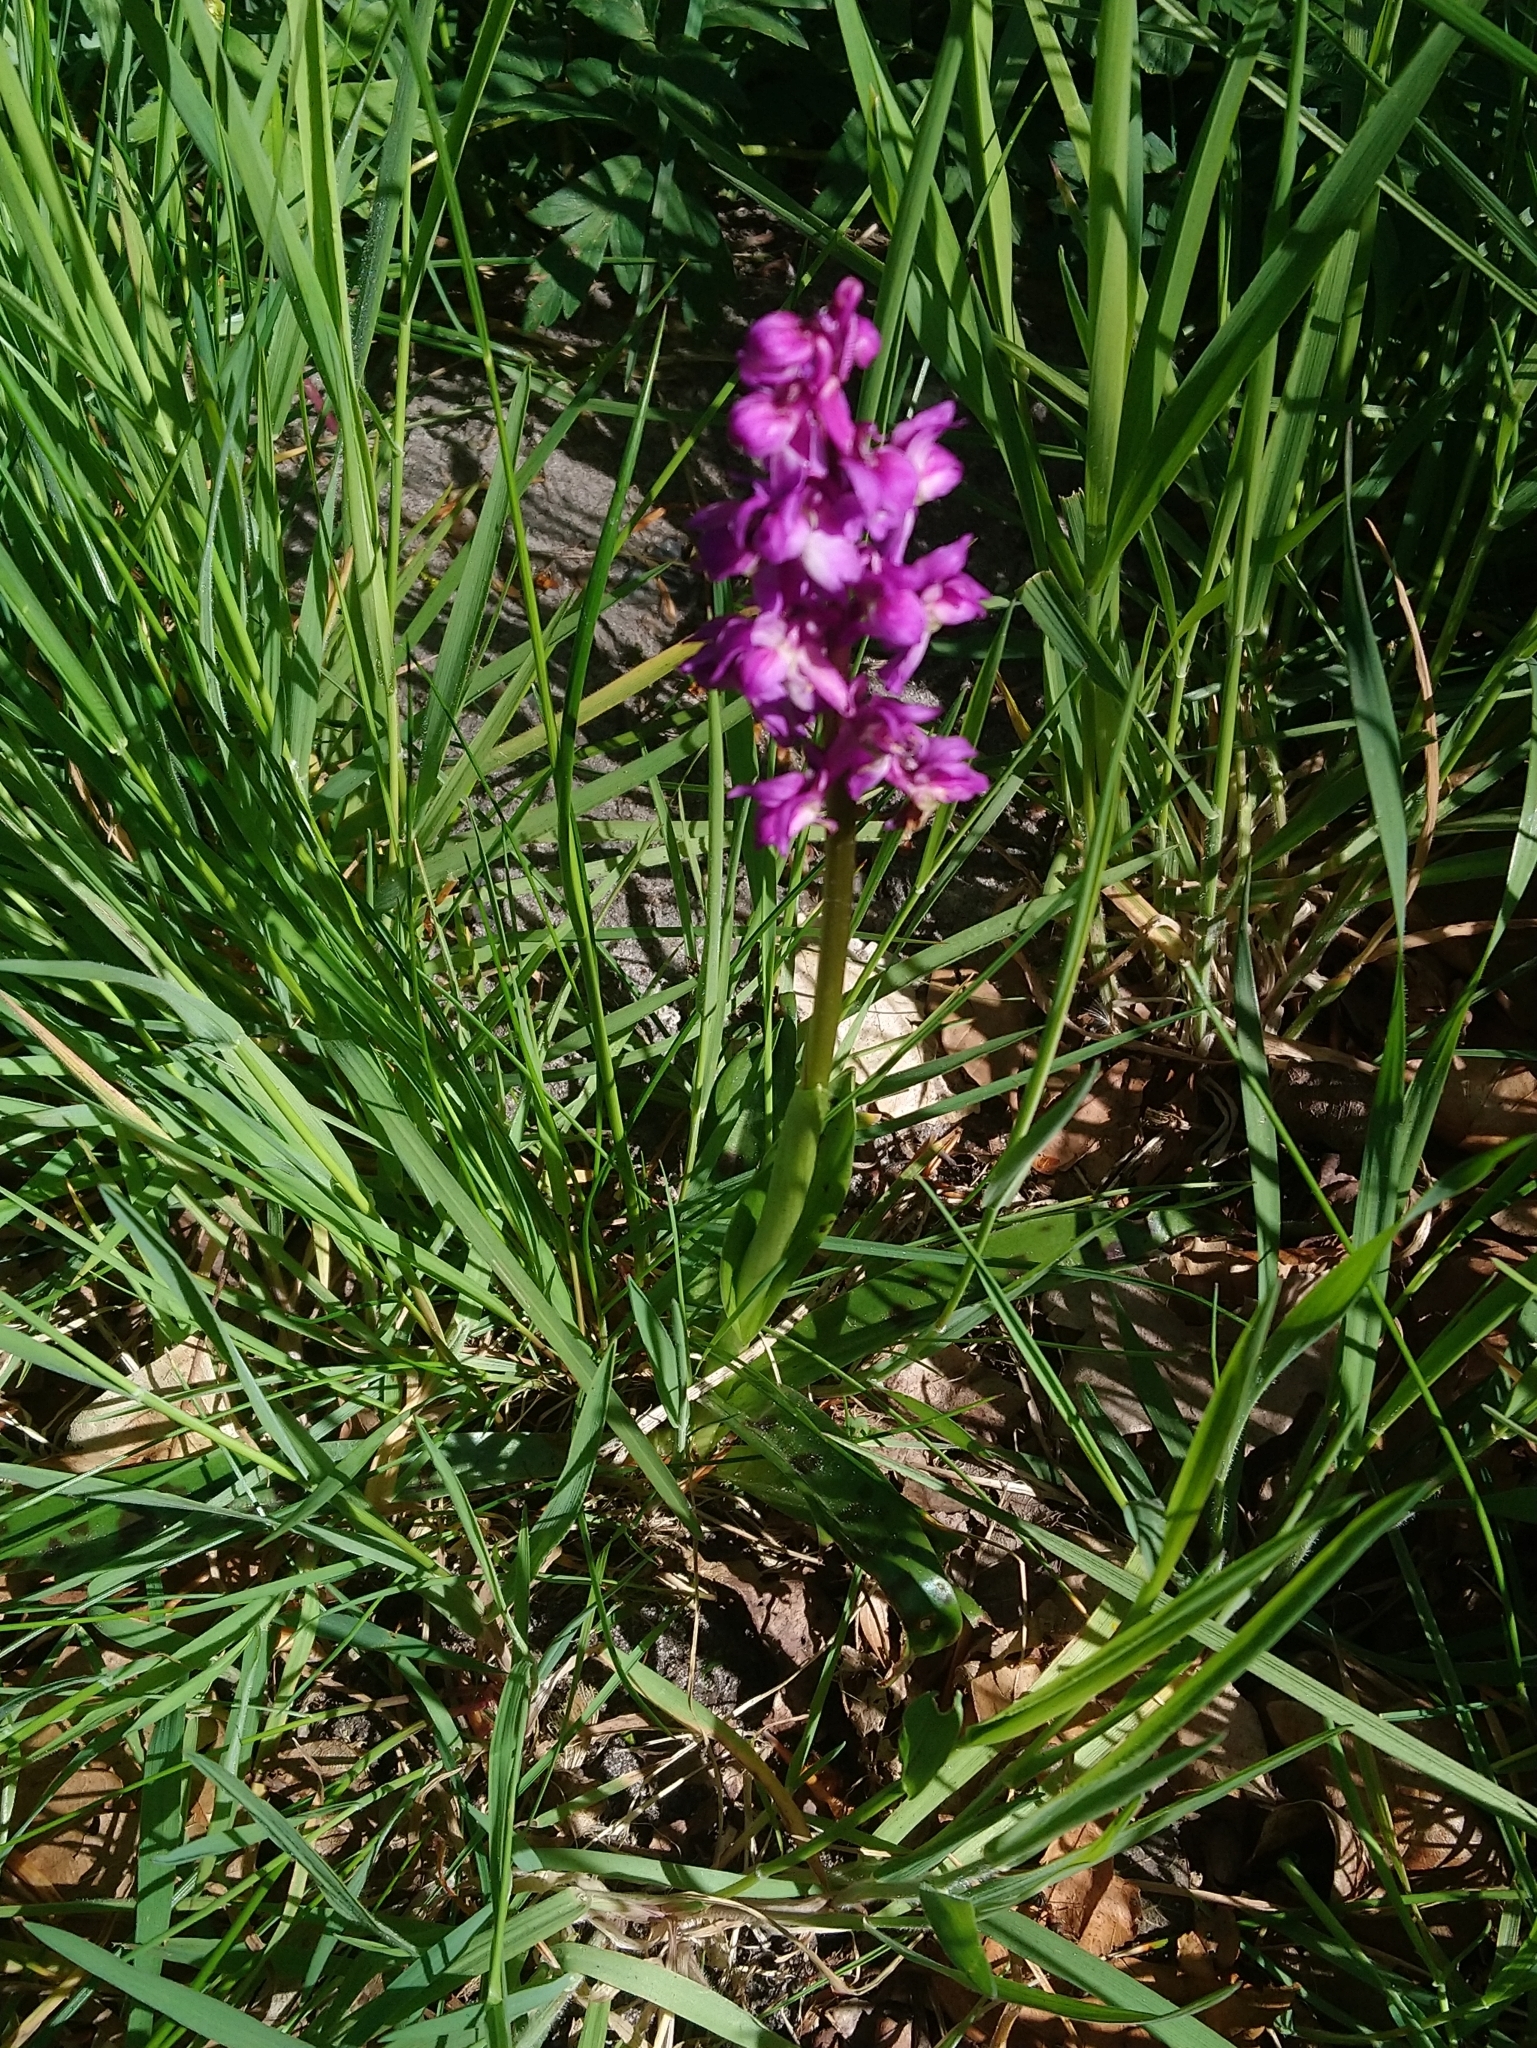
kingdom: Plantae
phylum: Tracheophyta
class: Liliopsida
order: Asparagales
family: Orchidaceae
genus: Orchis
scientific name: Orchis mascula
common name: Early-purple orchid
